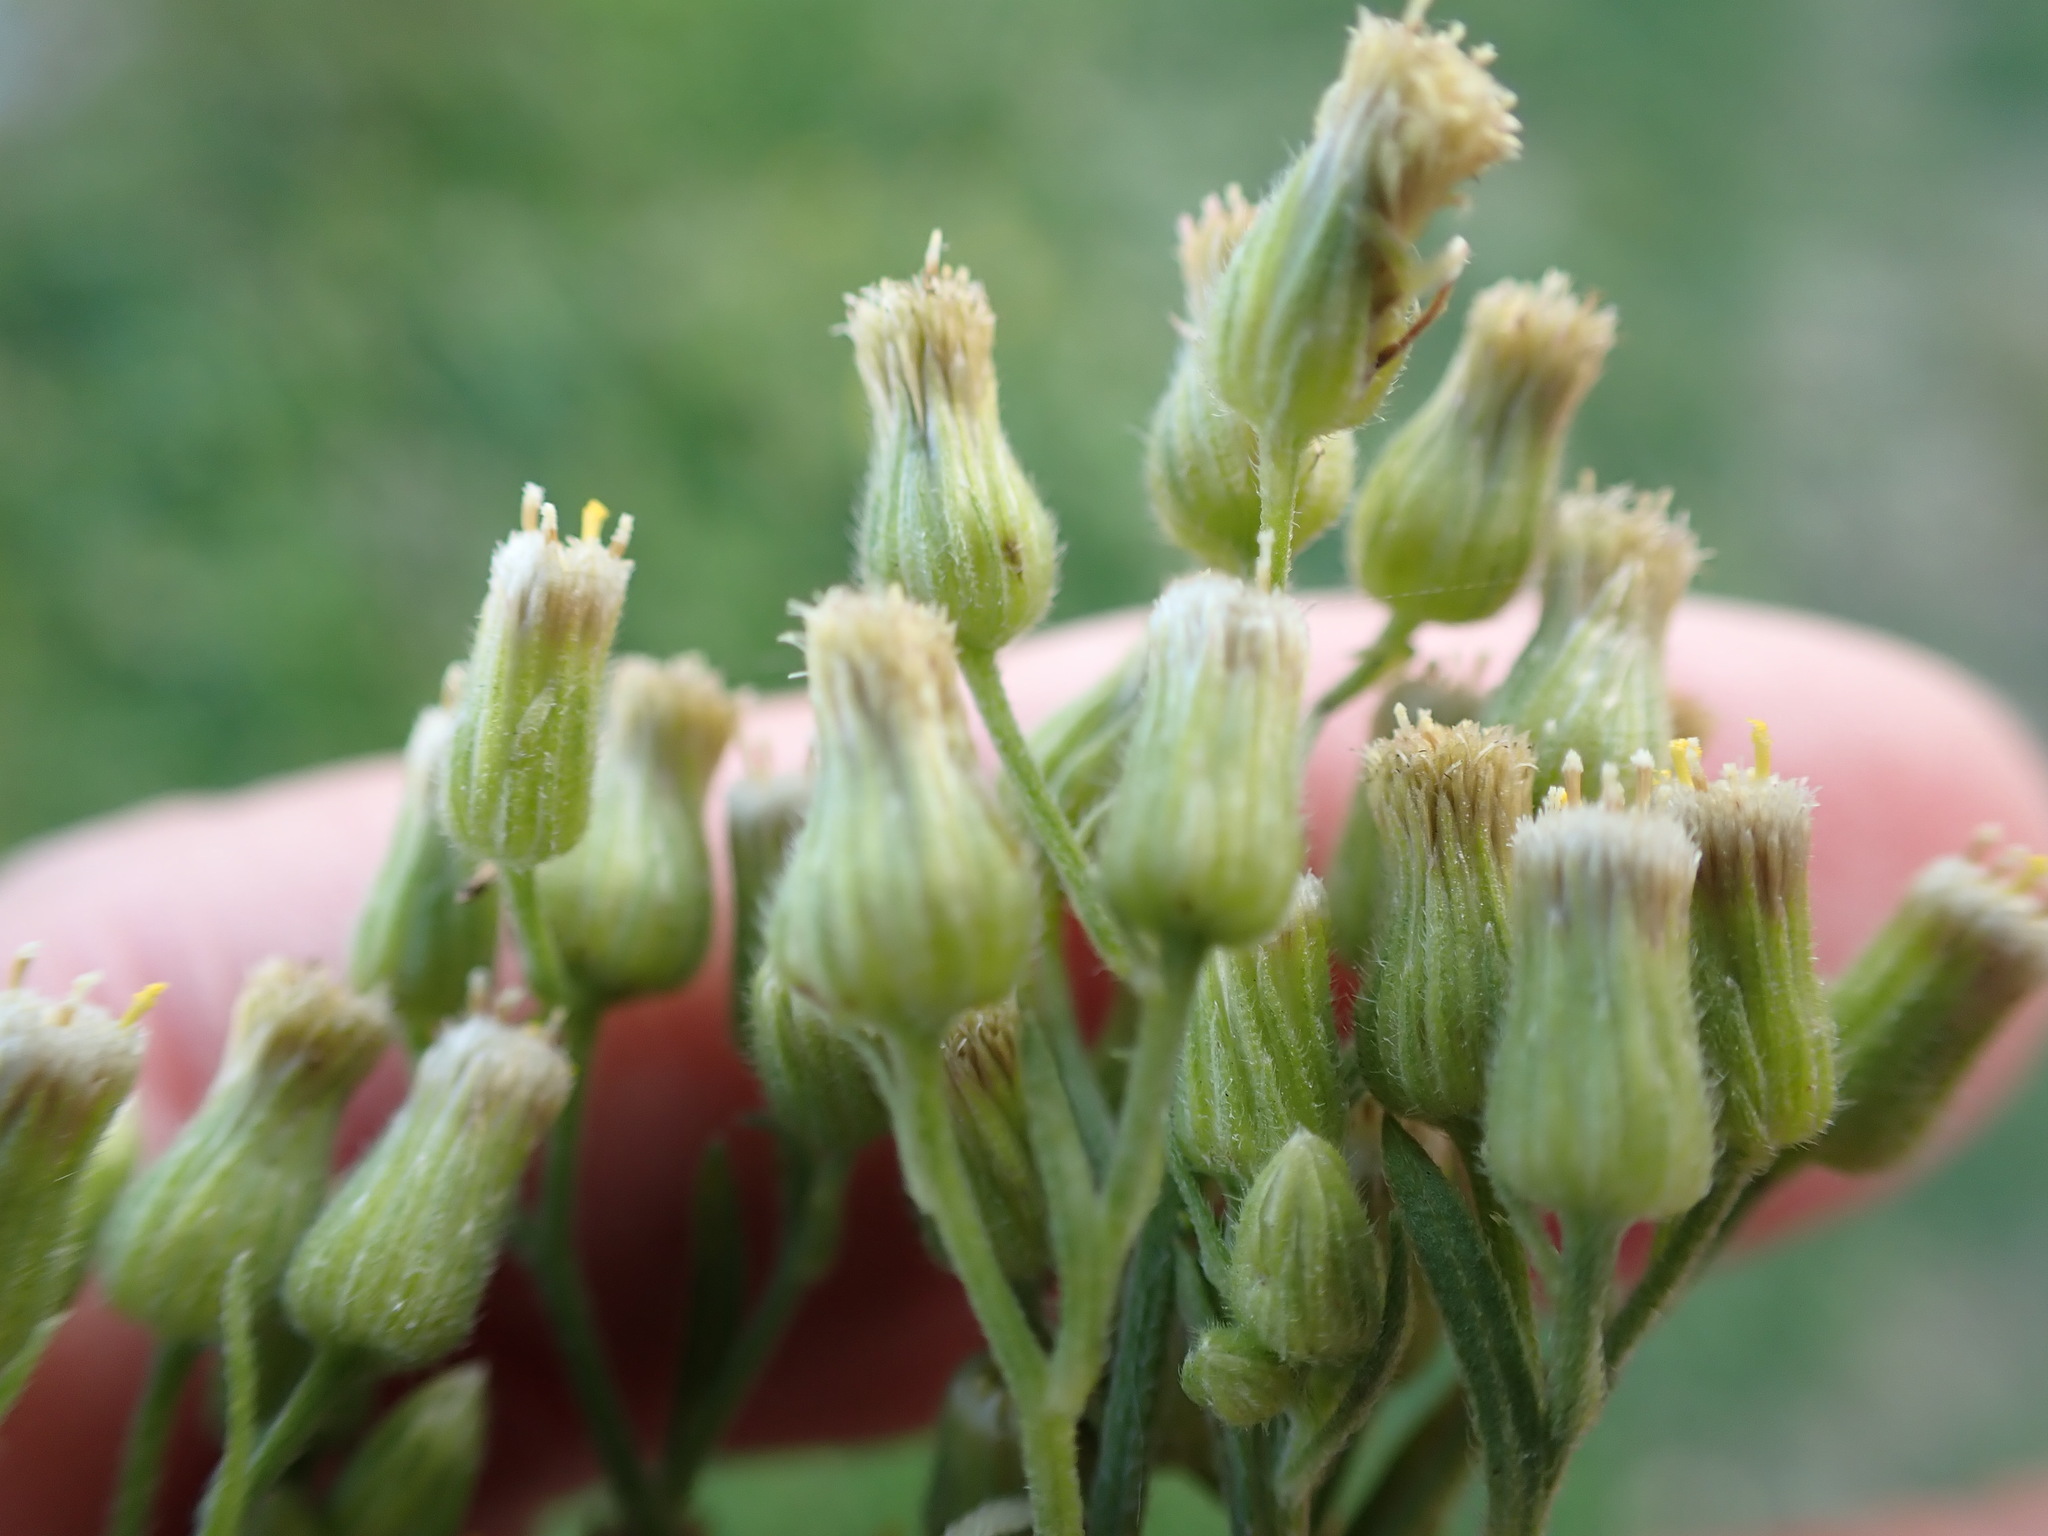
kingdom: Plantae
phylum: Tracheophyta
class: Magnoliopsida
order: Asterales
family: Asteraceae
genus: Erigeron
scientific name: Erigeron sumatrensis
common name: Daisy
